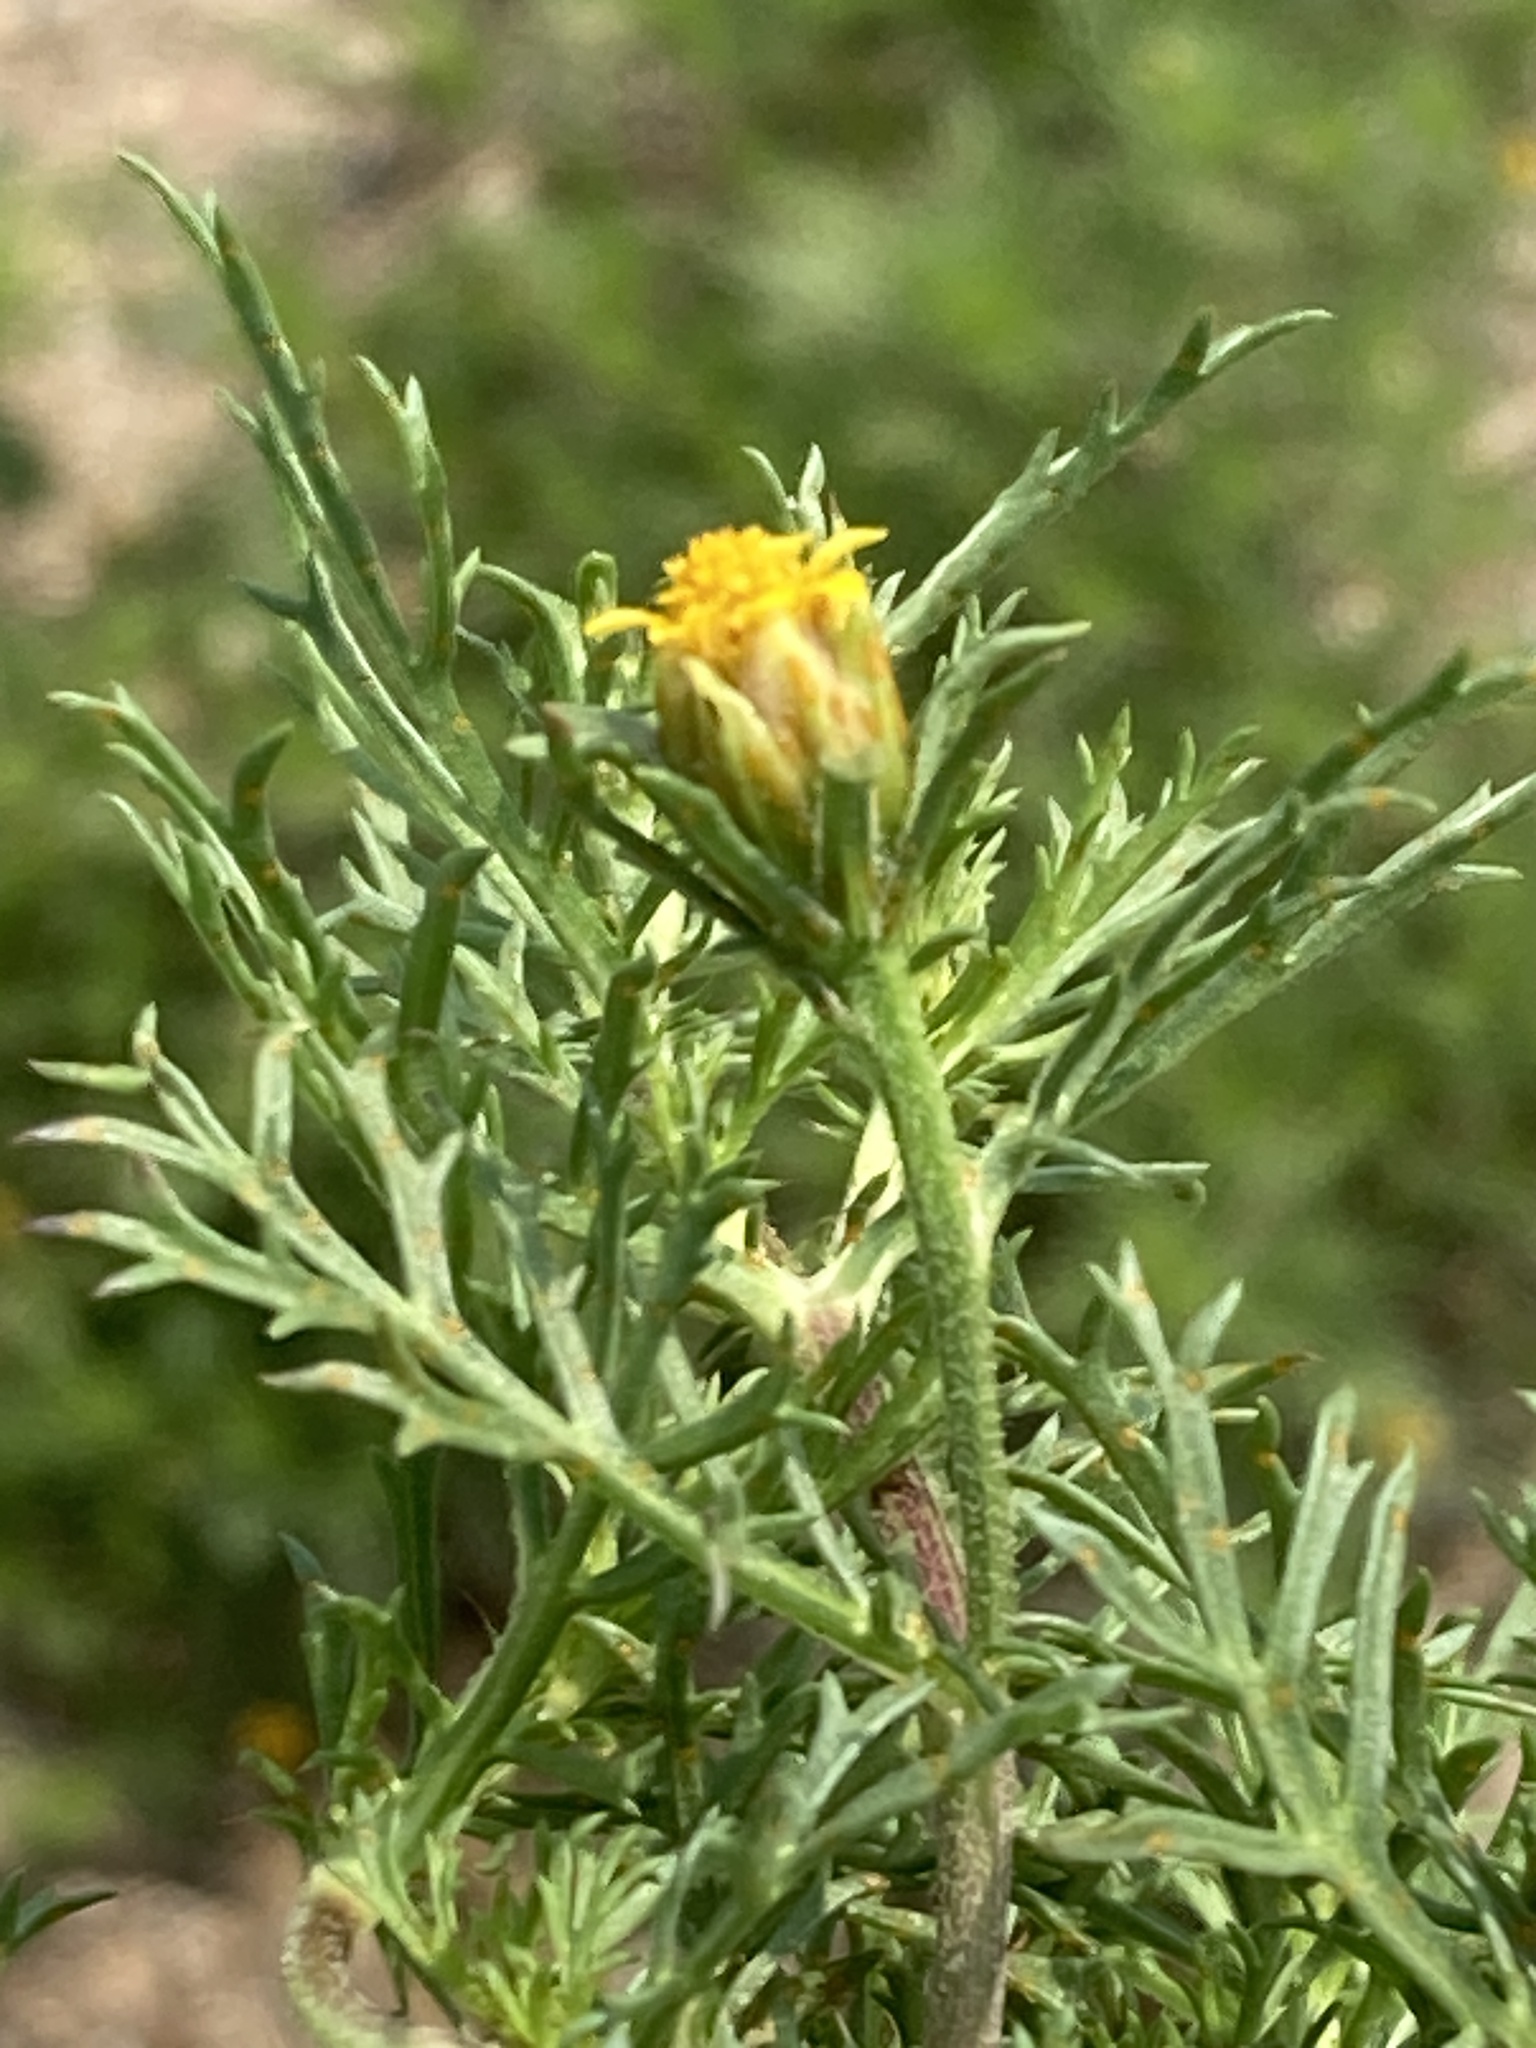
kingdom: Plantae
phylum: Tracheophyta
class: Magnoliopsida
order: Asterales
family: Asteraceae
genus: Dyssodia
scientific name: Dyssodia papposa
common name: Dogweed
